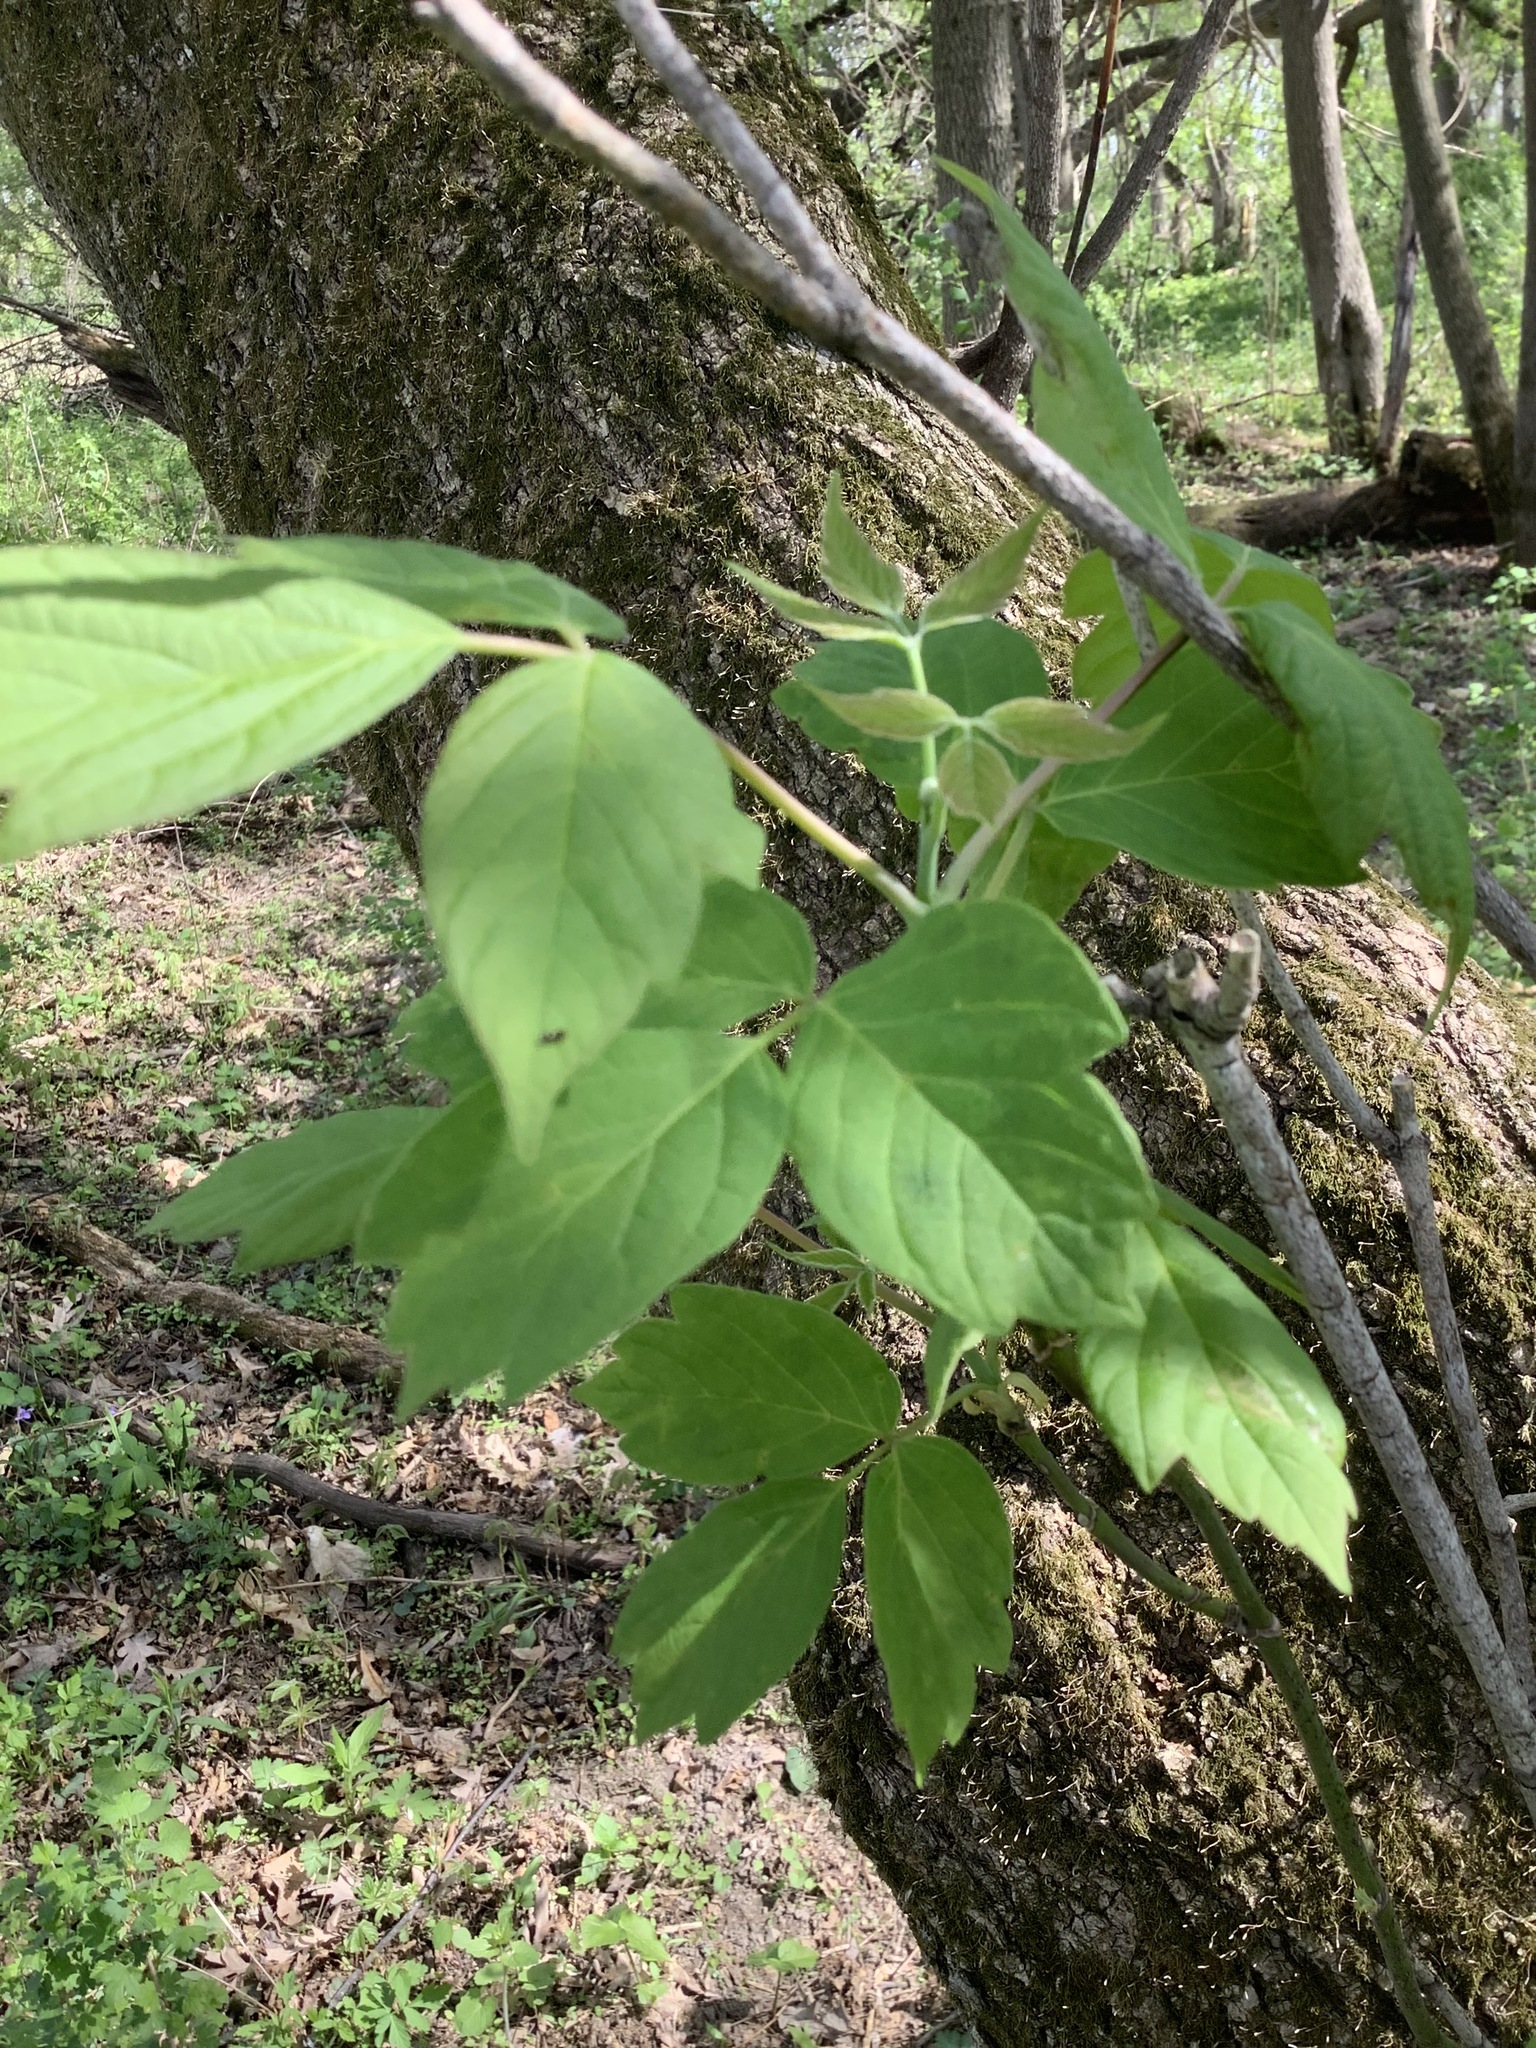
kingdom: Plantae
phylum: Tracheophyta
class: Magnoliopsida
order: Sapindales
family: Sapindaceae
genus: Acer
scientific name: Acer negundo
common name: Ashleaf maple
